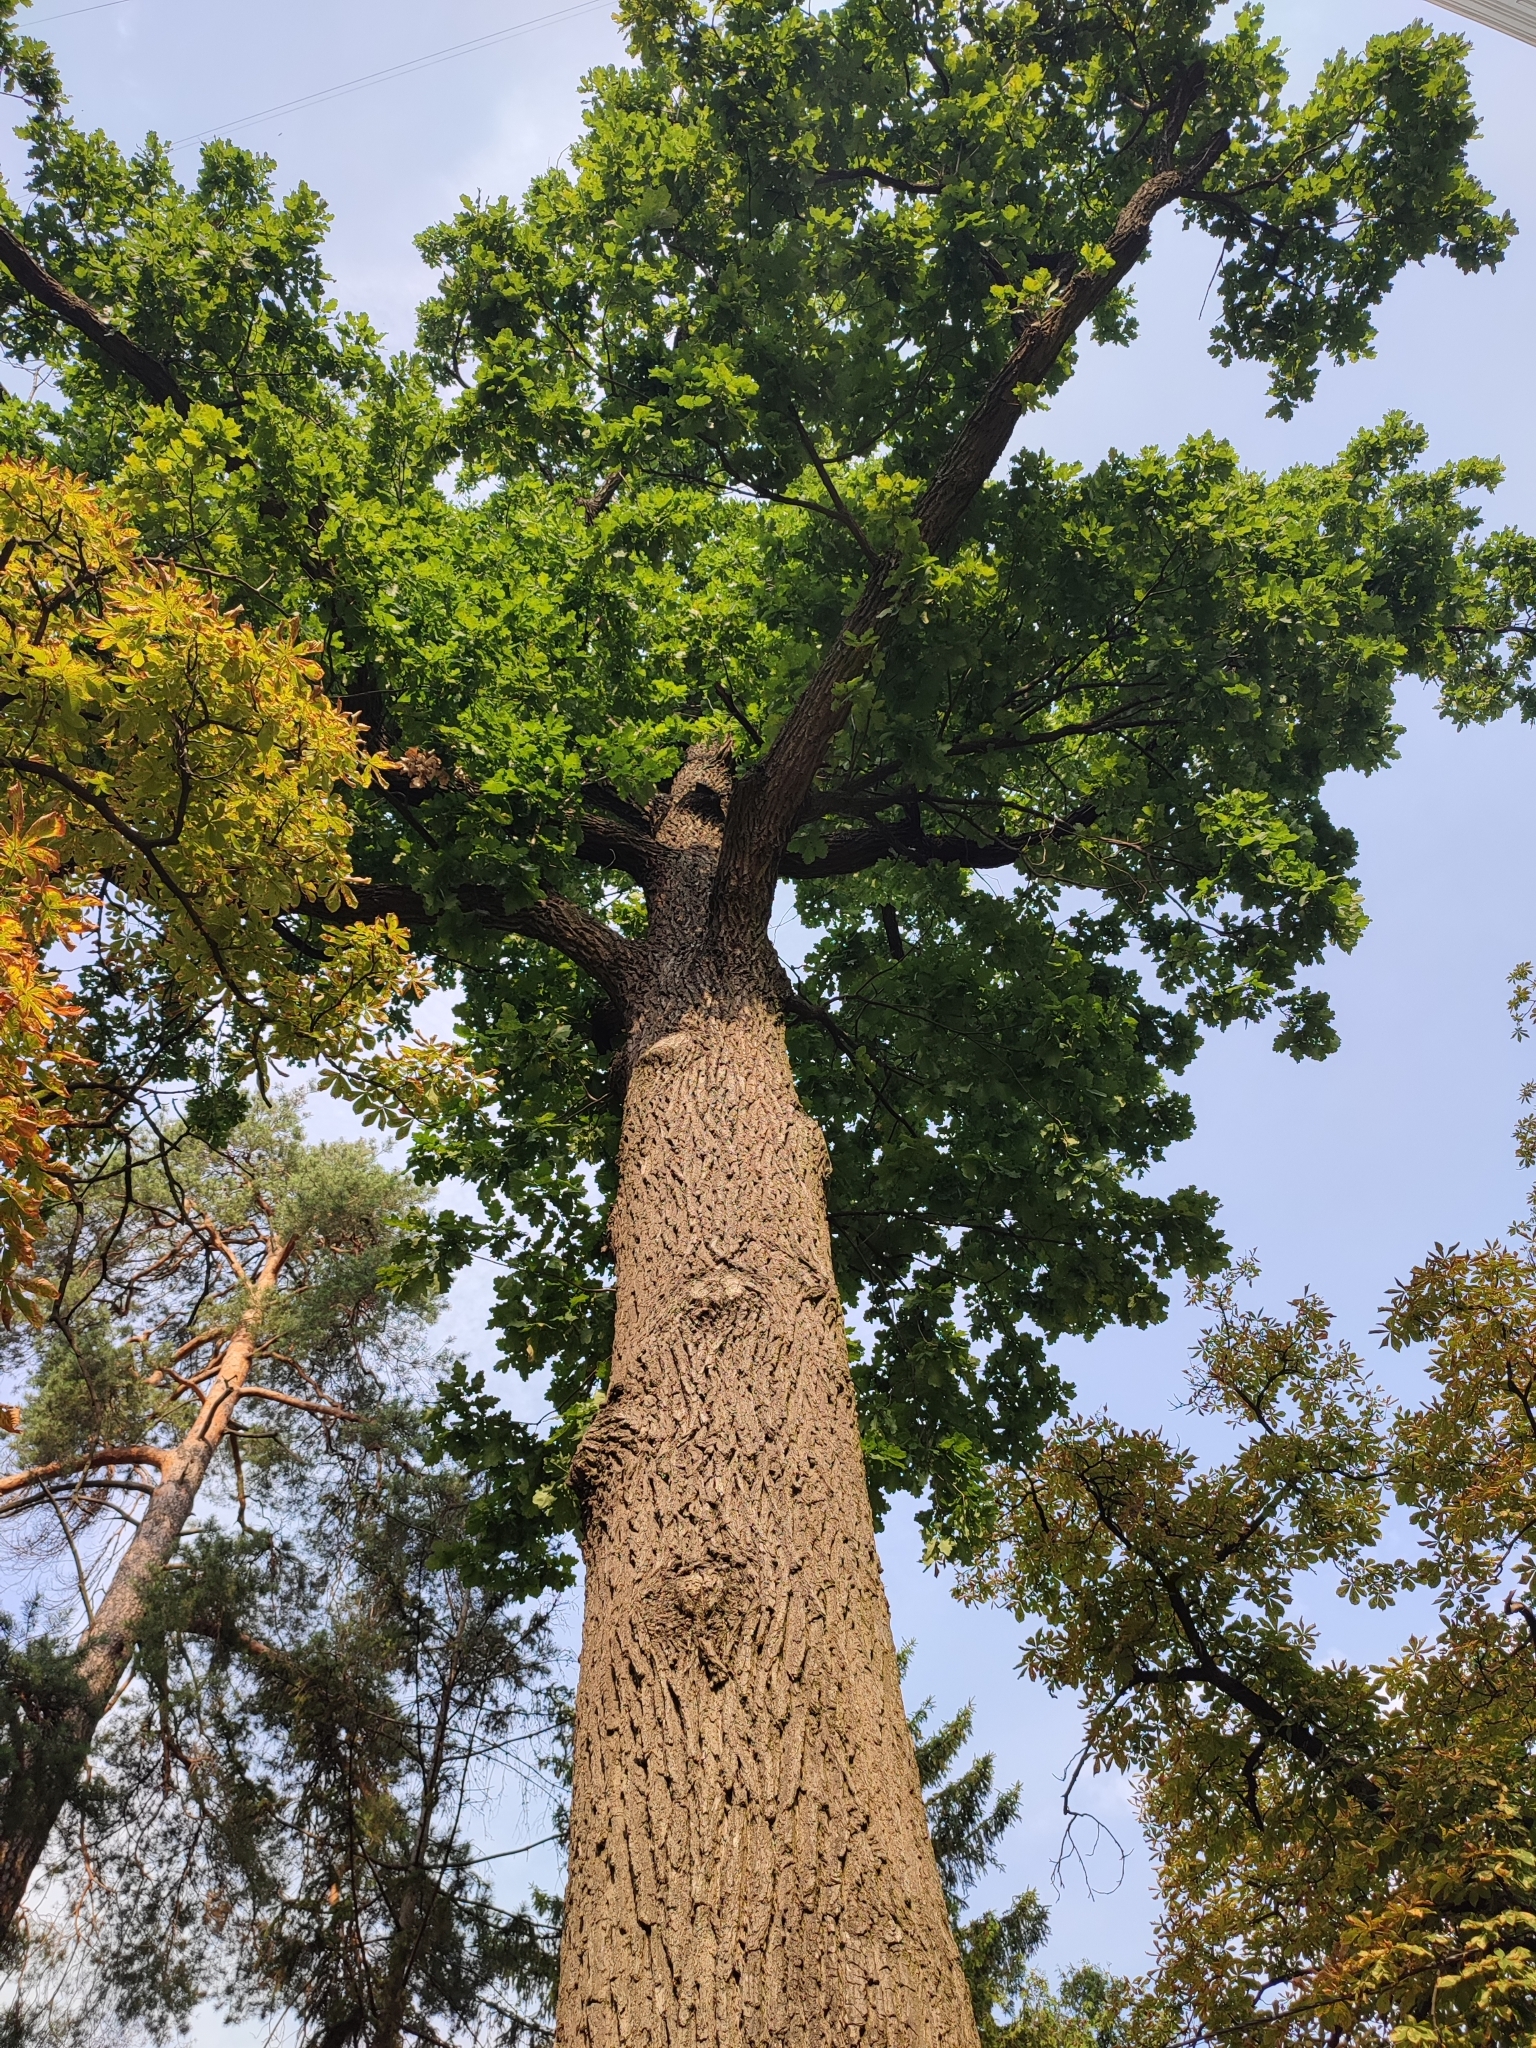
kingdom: Plantae
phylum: Tracheophyta
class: Magnoliopsida
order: Fagales
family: Fagaceae
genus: Quercus
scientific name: Quercus robur
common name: Pedunculate oak
